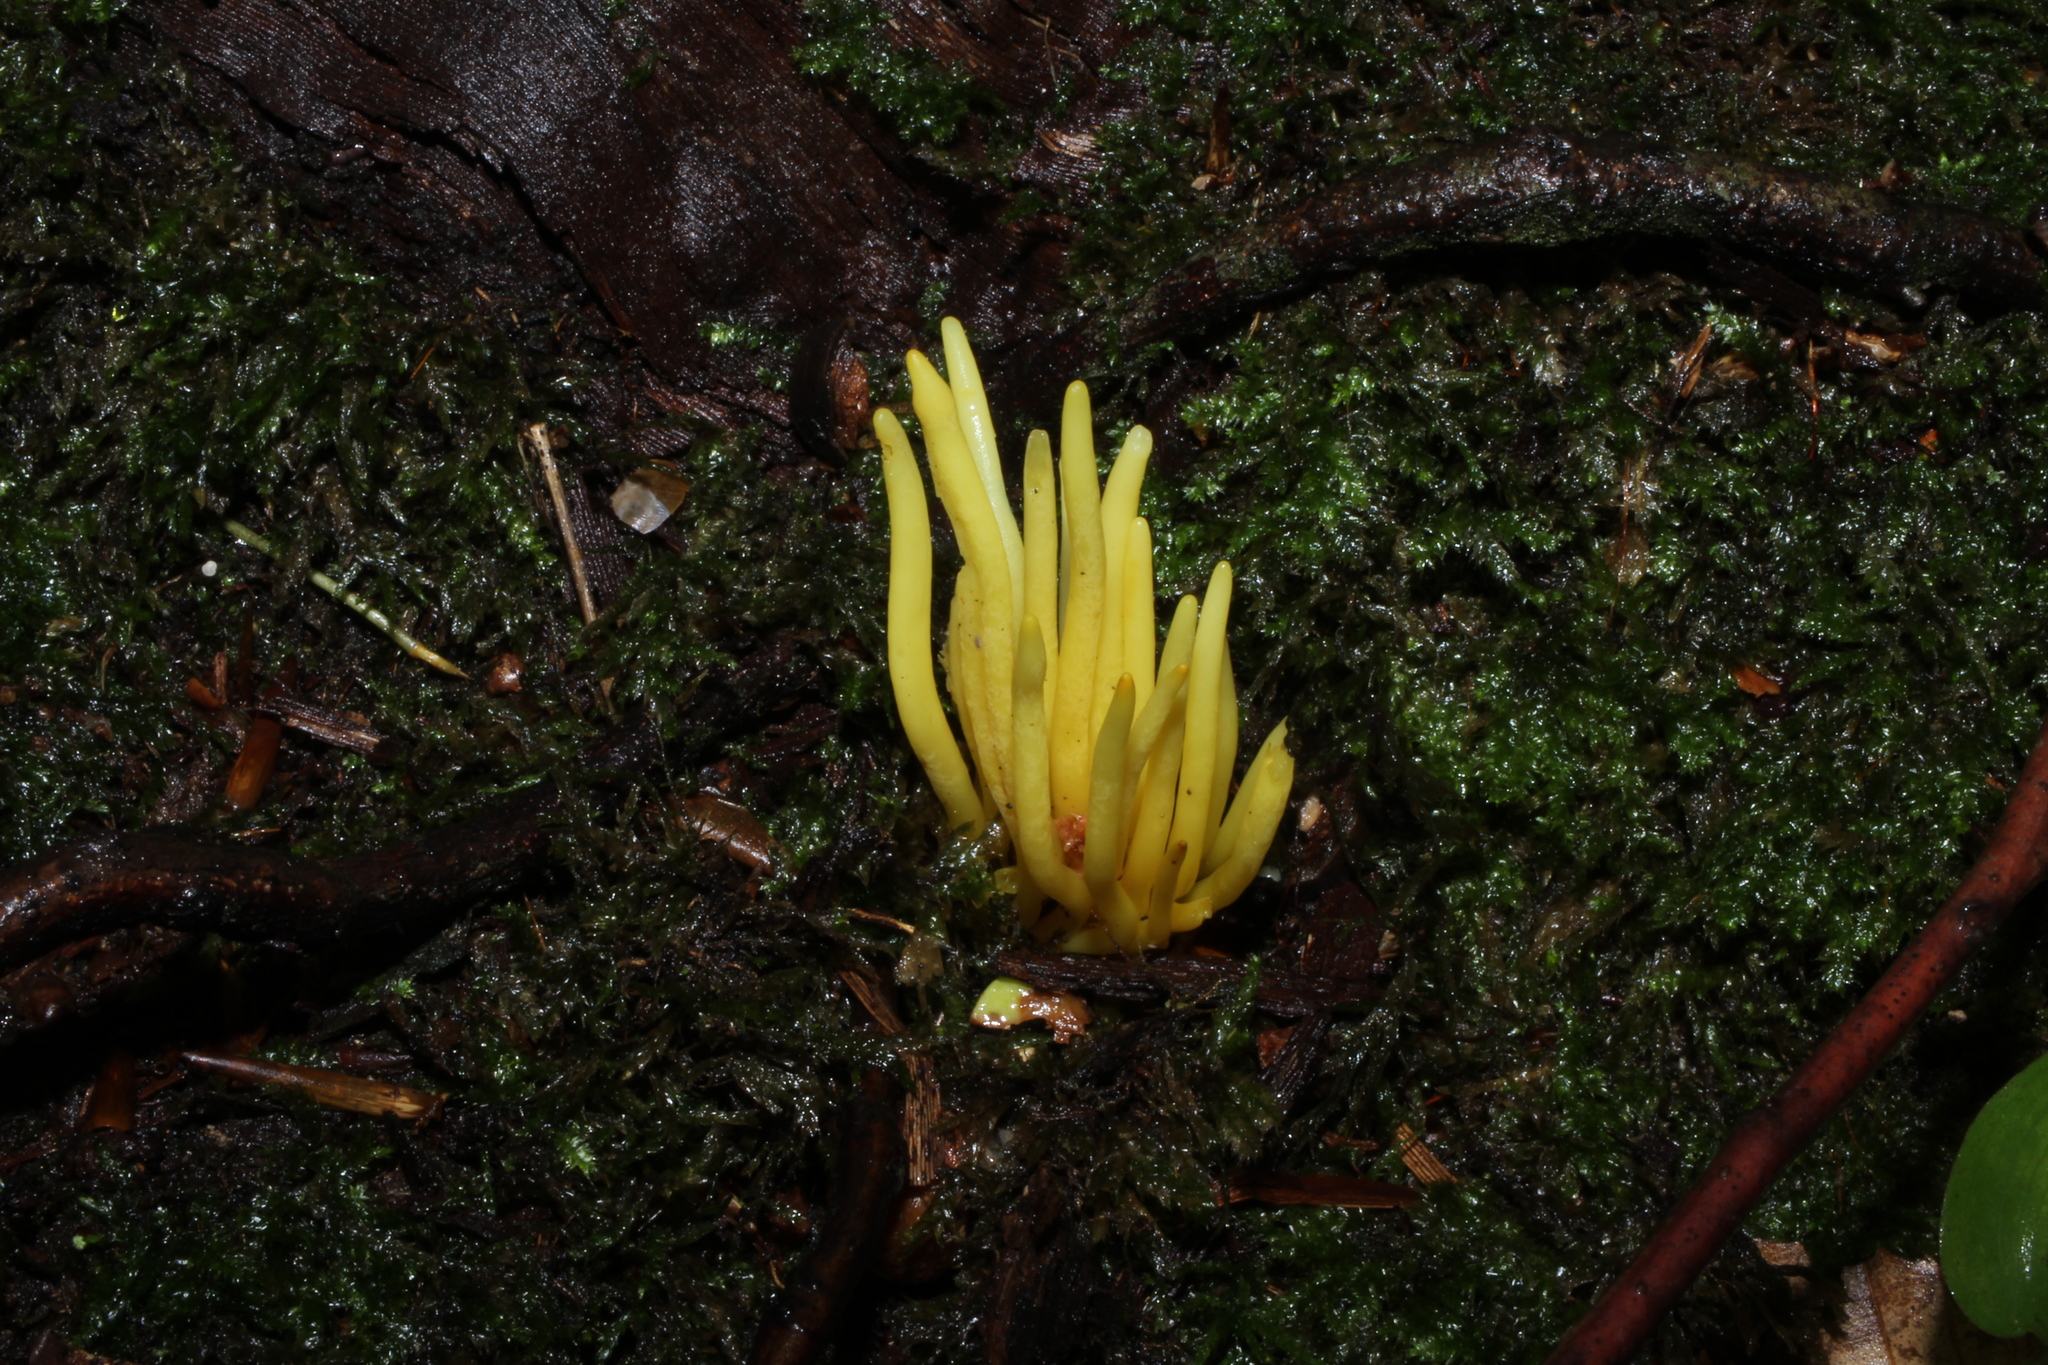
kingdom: Fungi
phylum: Basidiomycota
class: Agaricomycetes
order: Agaricales
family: Clavariaceae
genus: Clavulinopsis
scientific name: Clavulinopsis fusiformis
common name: Golden spindles
